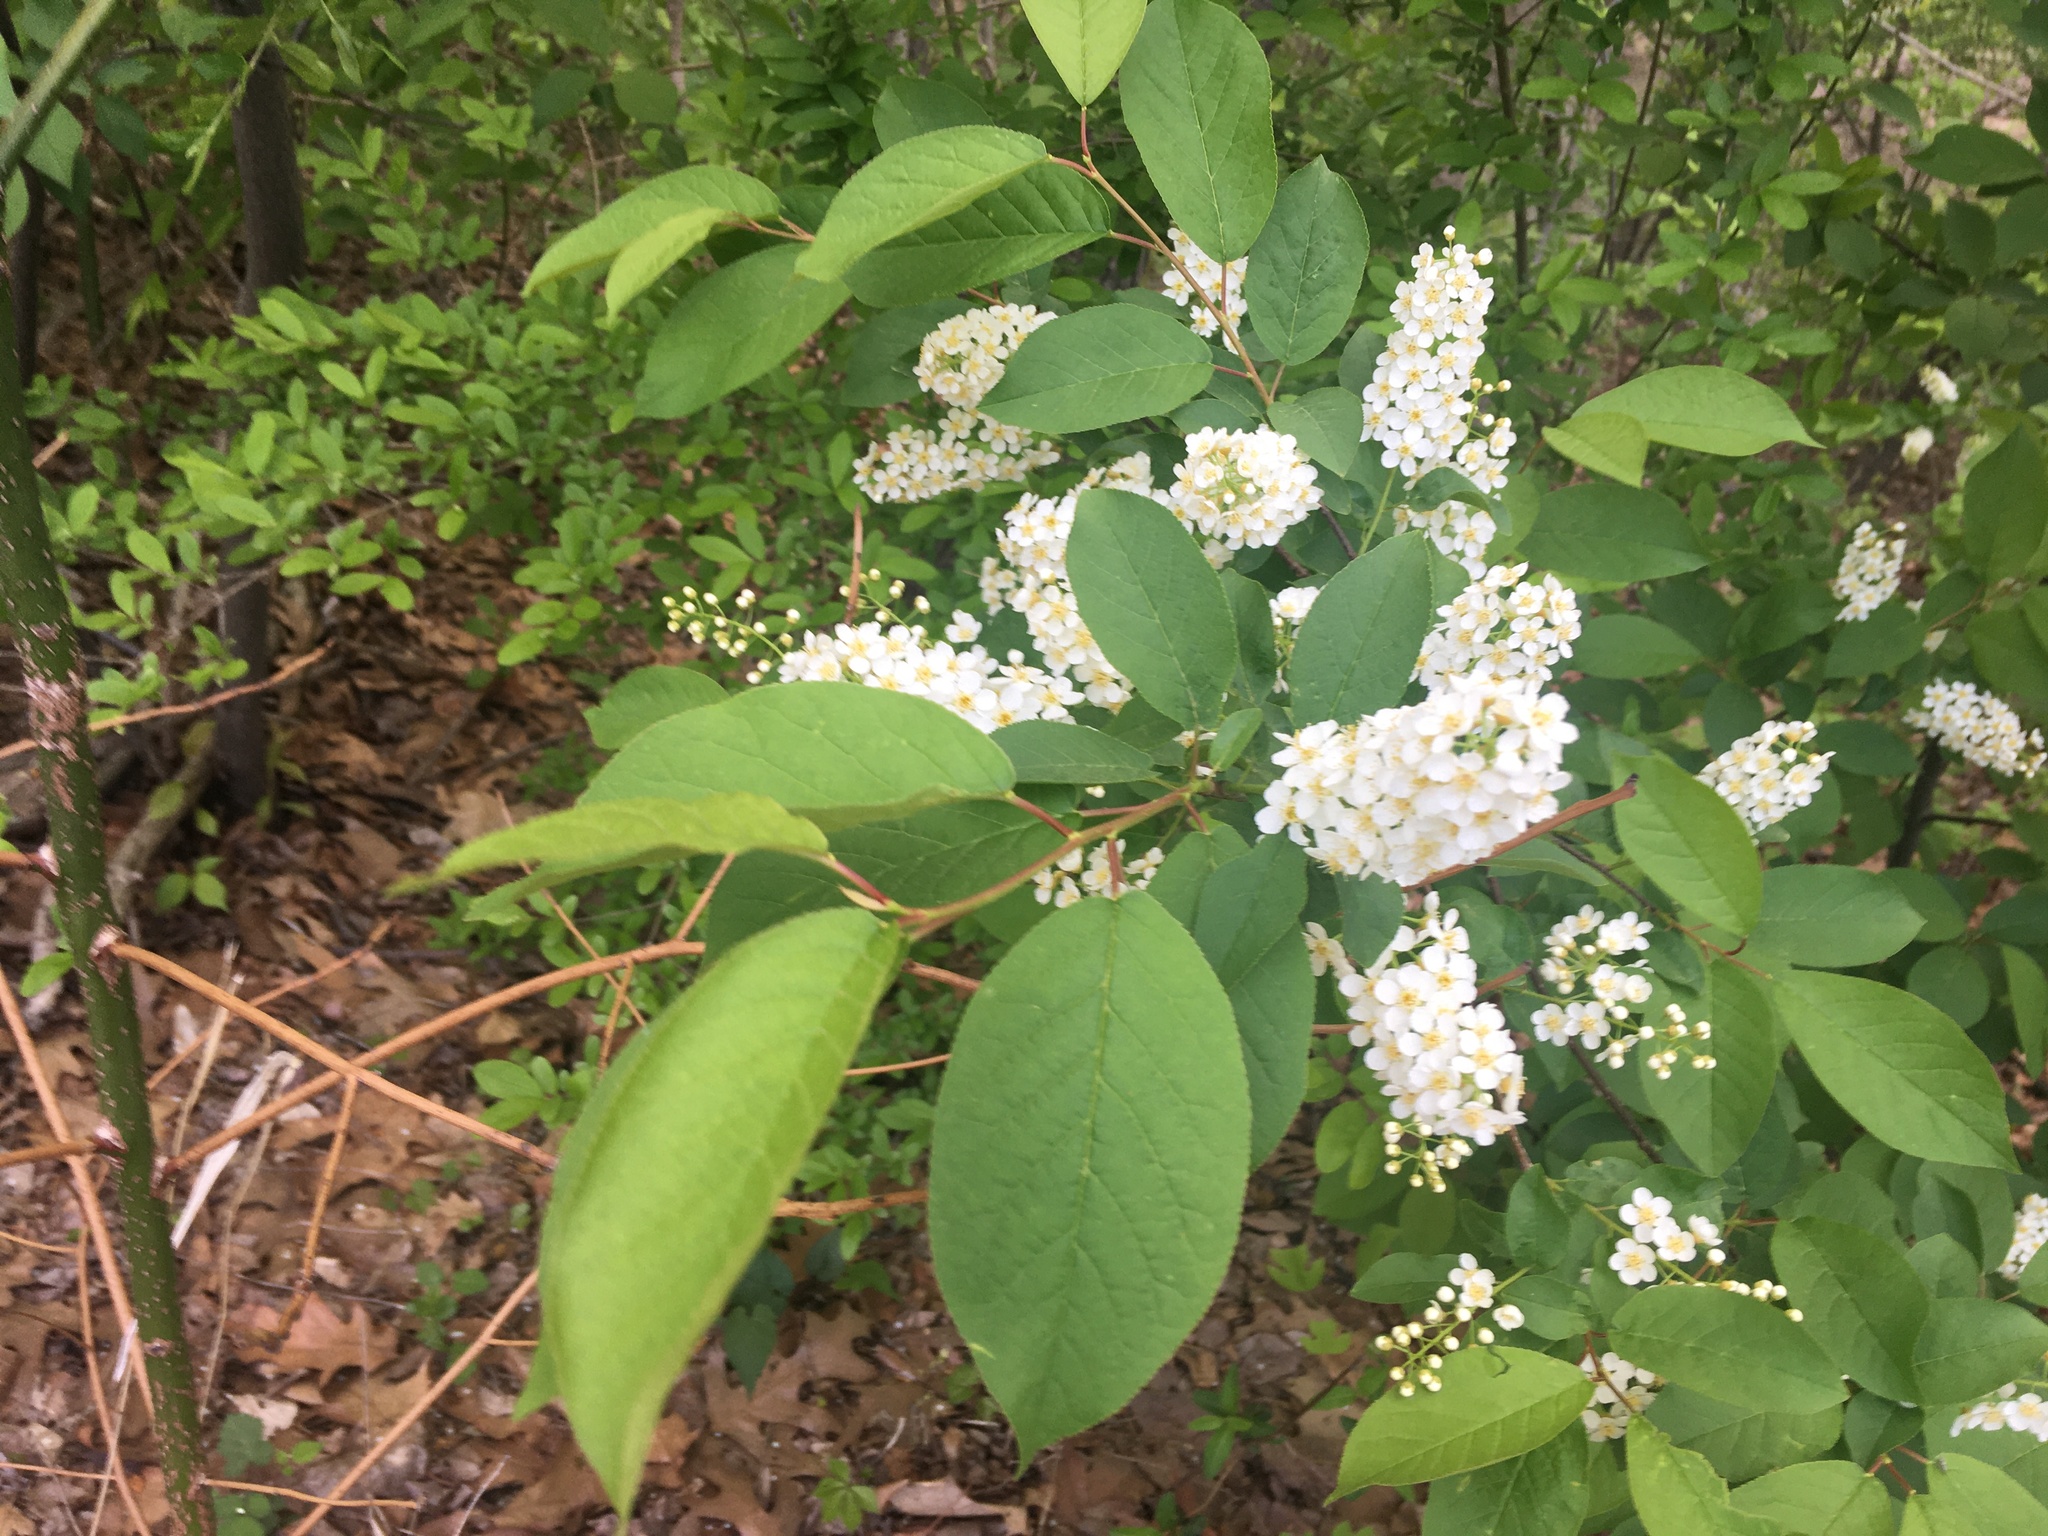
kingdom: Plantae
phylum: Tracheophyta
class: Magnoliopsida
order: Rosales
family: Rosaceae
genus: Prunus
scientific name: Prunus virginiana
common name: Chokecherry
